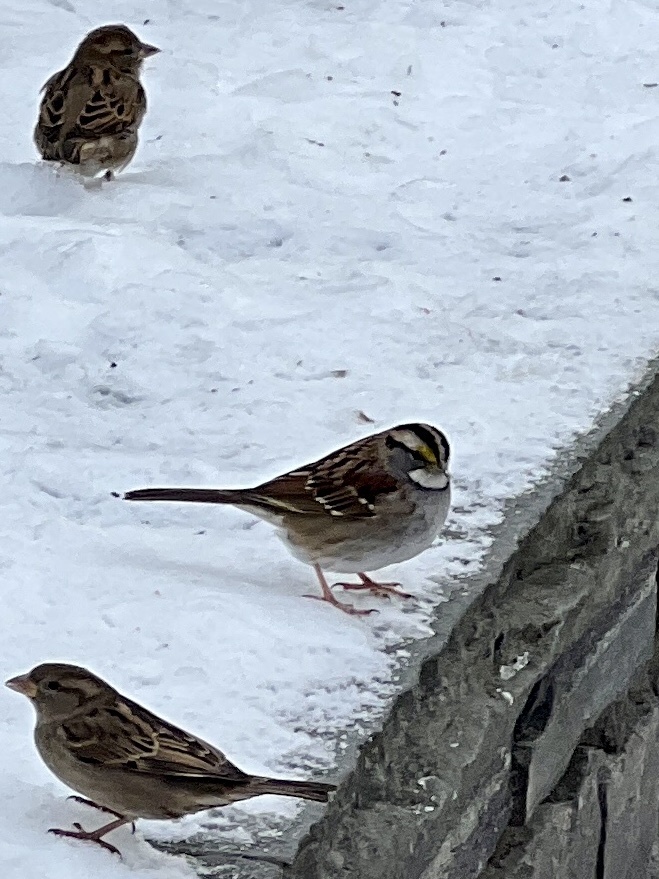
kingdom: Animalia
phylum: Chordata
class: Aves
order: Passeriformes
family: Passerellidae
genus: Zonotrichia
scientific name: Zonotrichia albicollis
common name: White-throated sparrow
